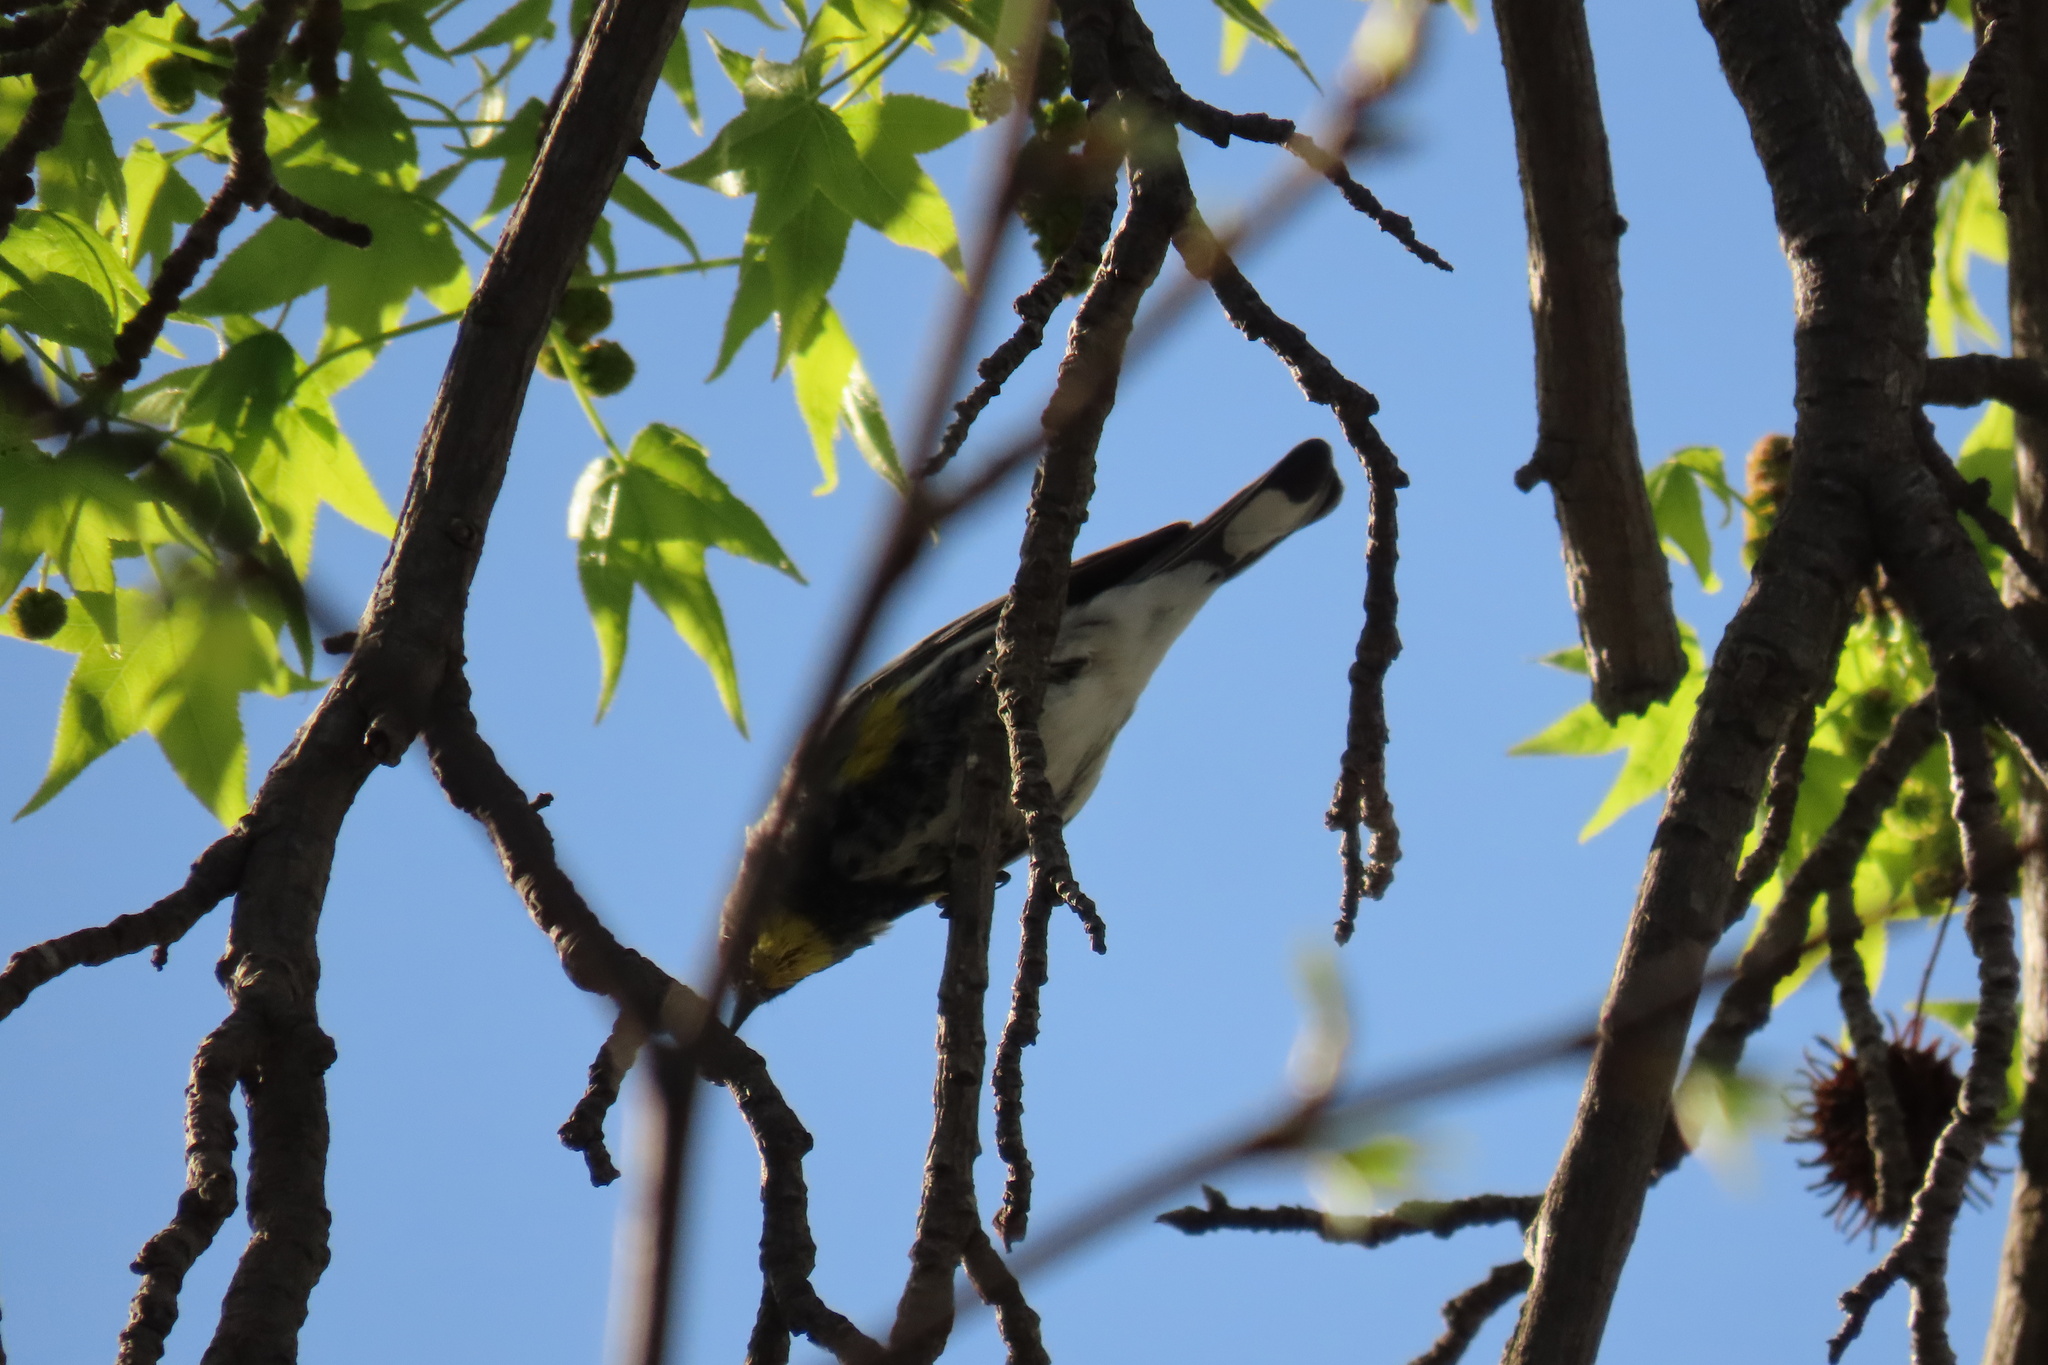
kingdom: Animalia
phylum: Chordata
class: Aves
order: Passeriformes
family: Parulidae
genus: Setophaga
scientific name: Setophaga coronata
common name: Myrtle warbler
